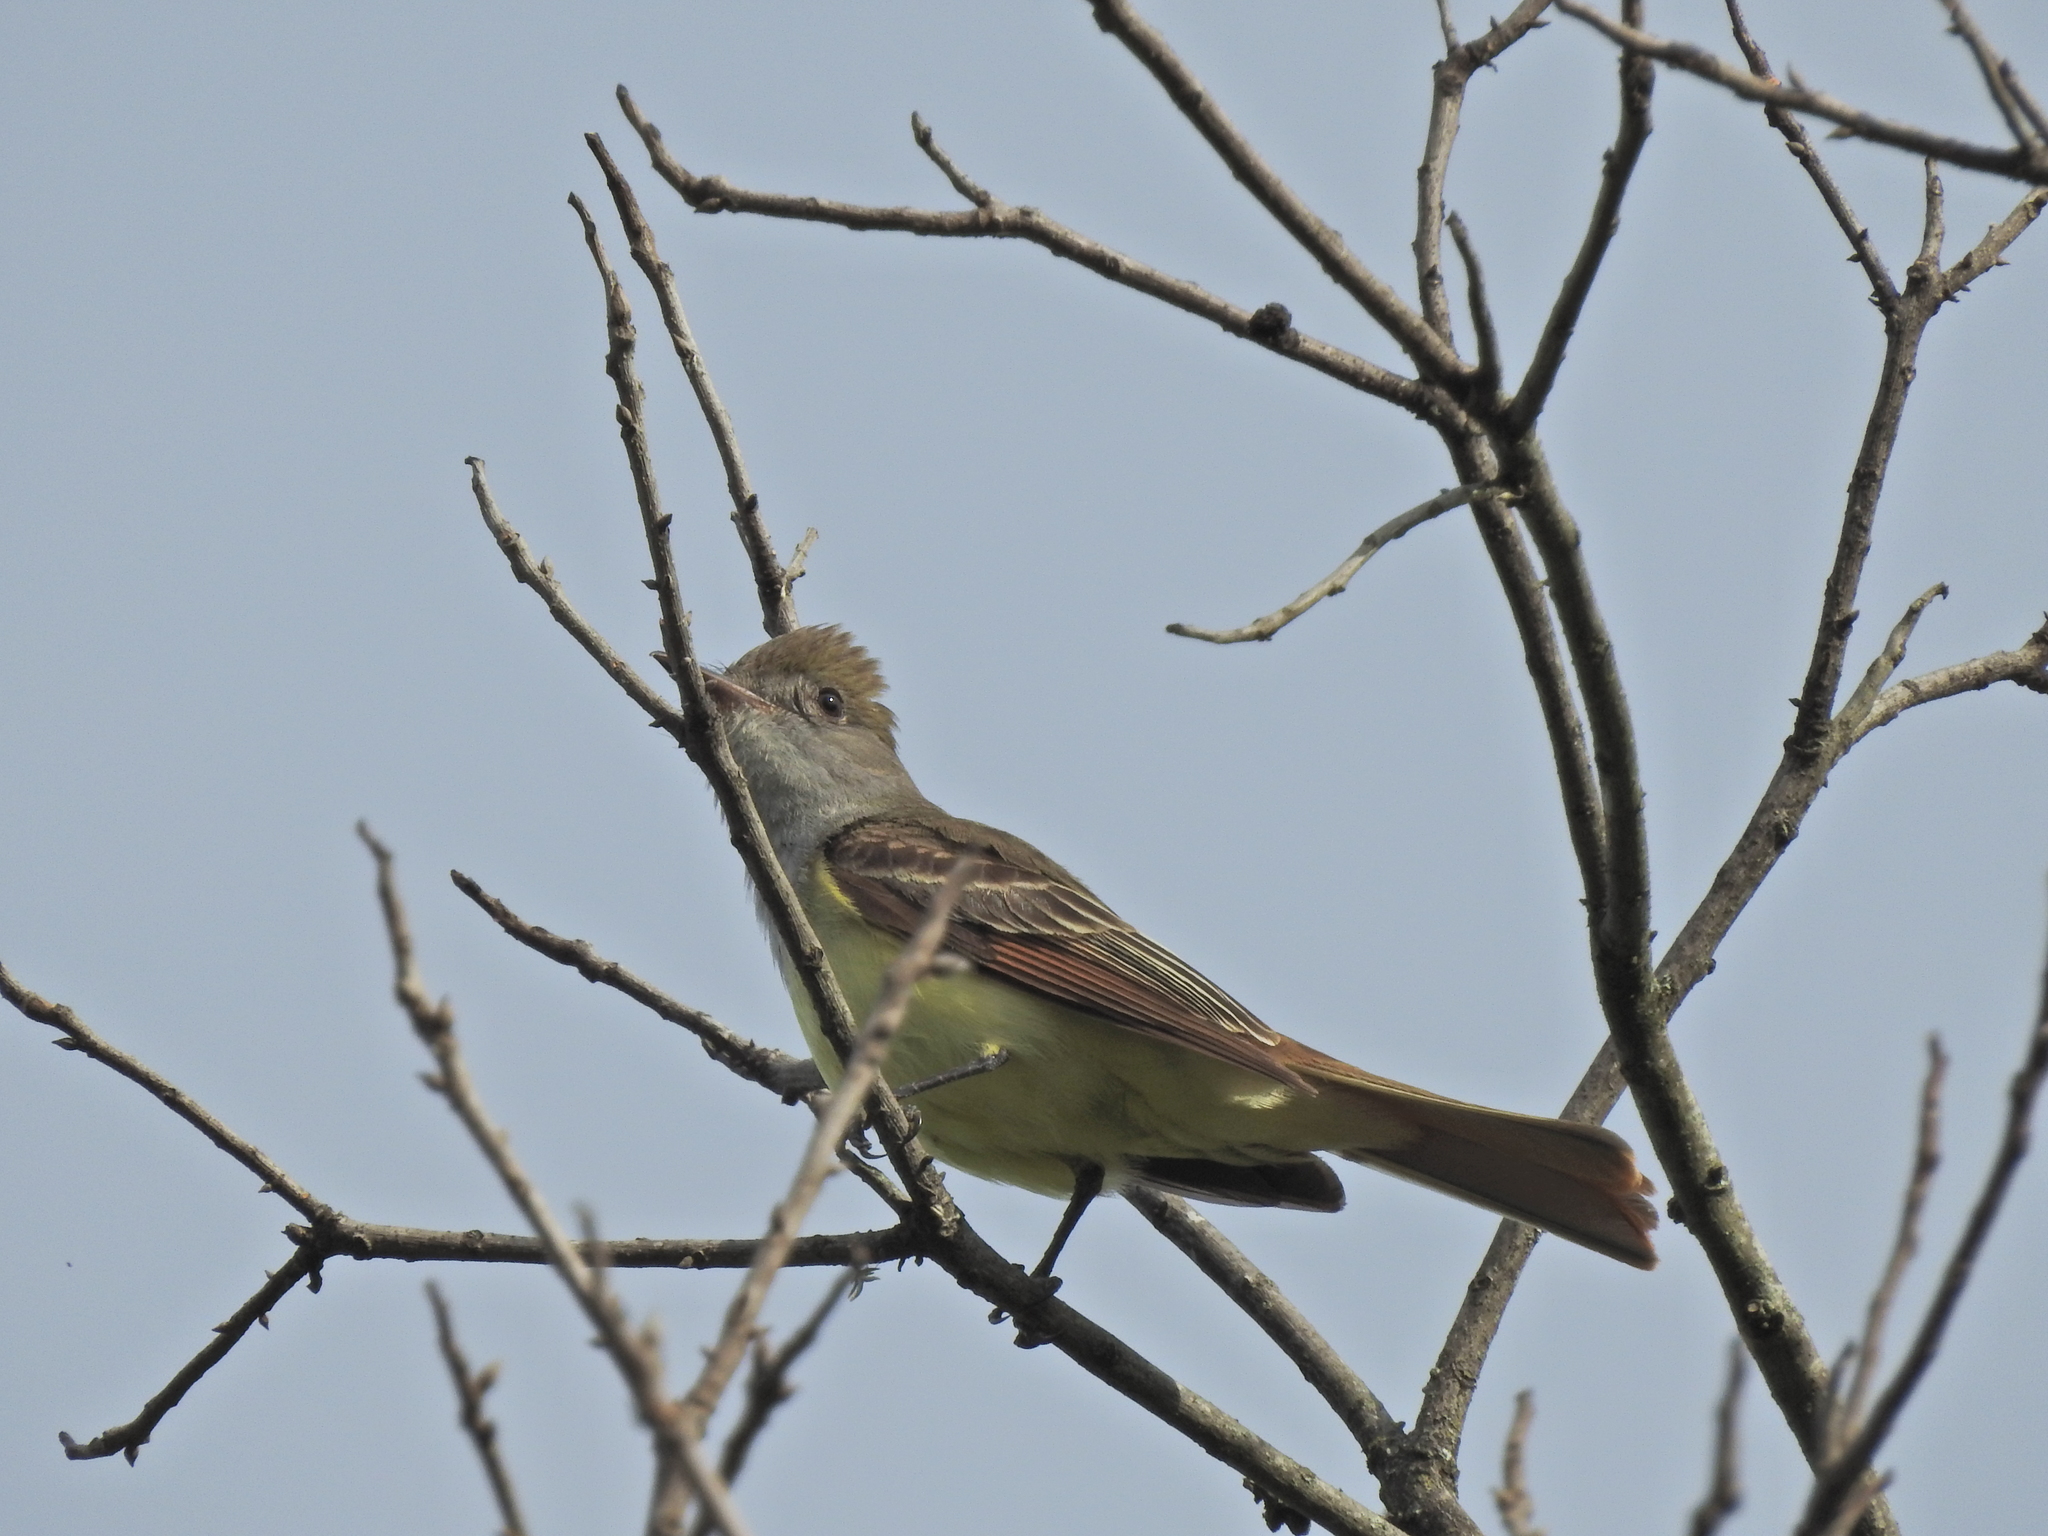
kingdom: Animalia
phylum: Chordata
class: Aves
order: Passeriformes
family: Tyrannidae
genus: Myiarchus
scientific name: Myiarchus crinitus
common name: Great crested flycatcher
